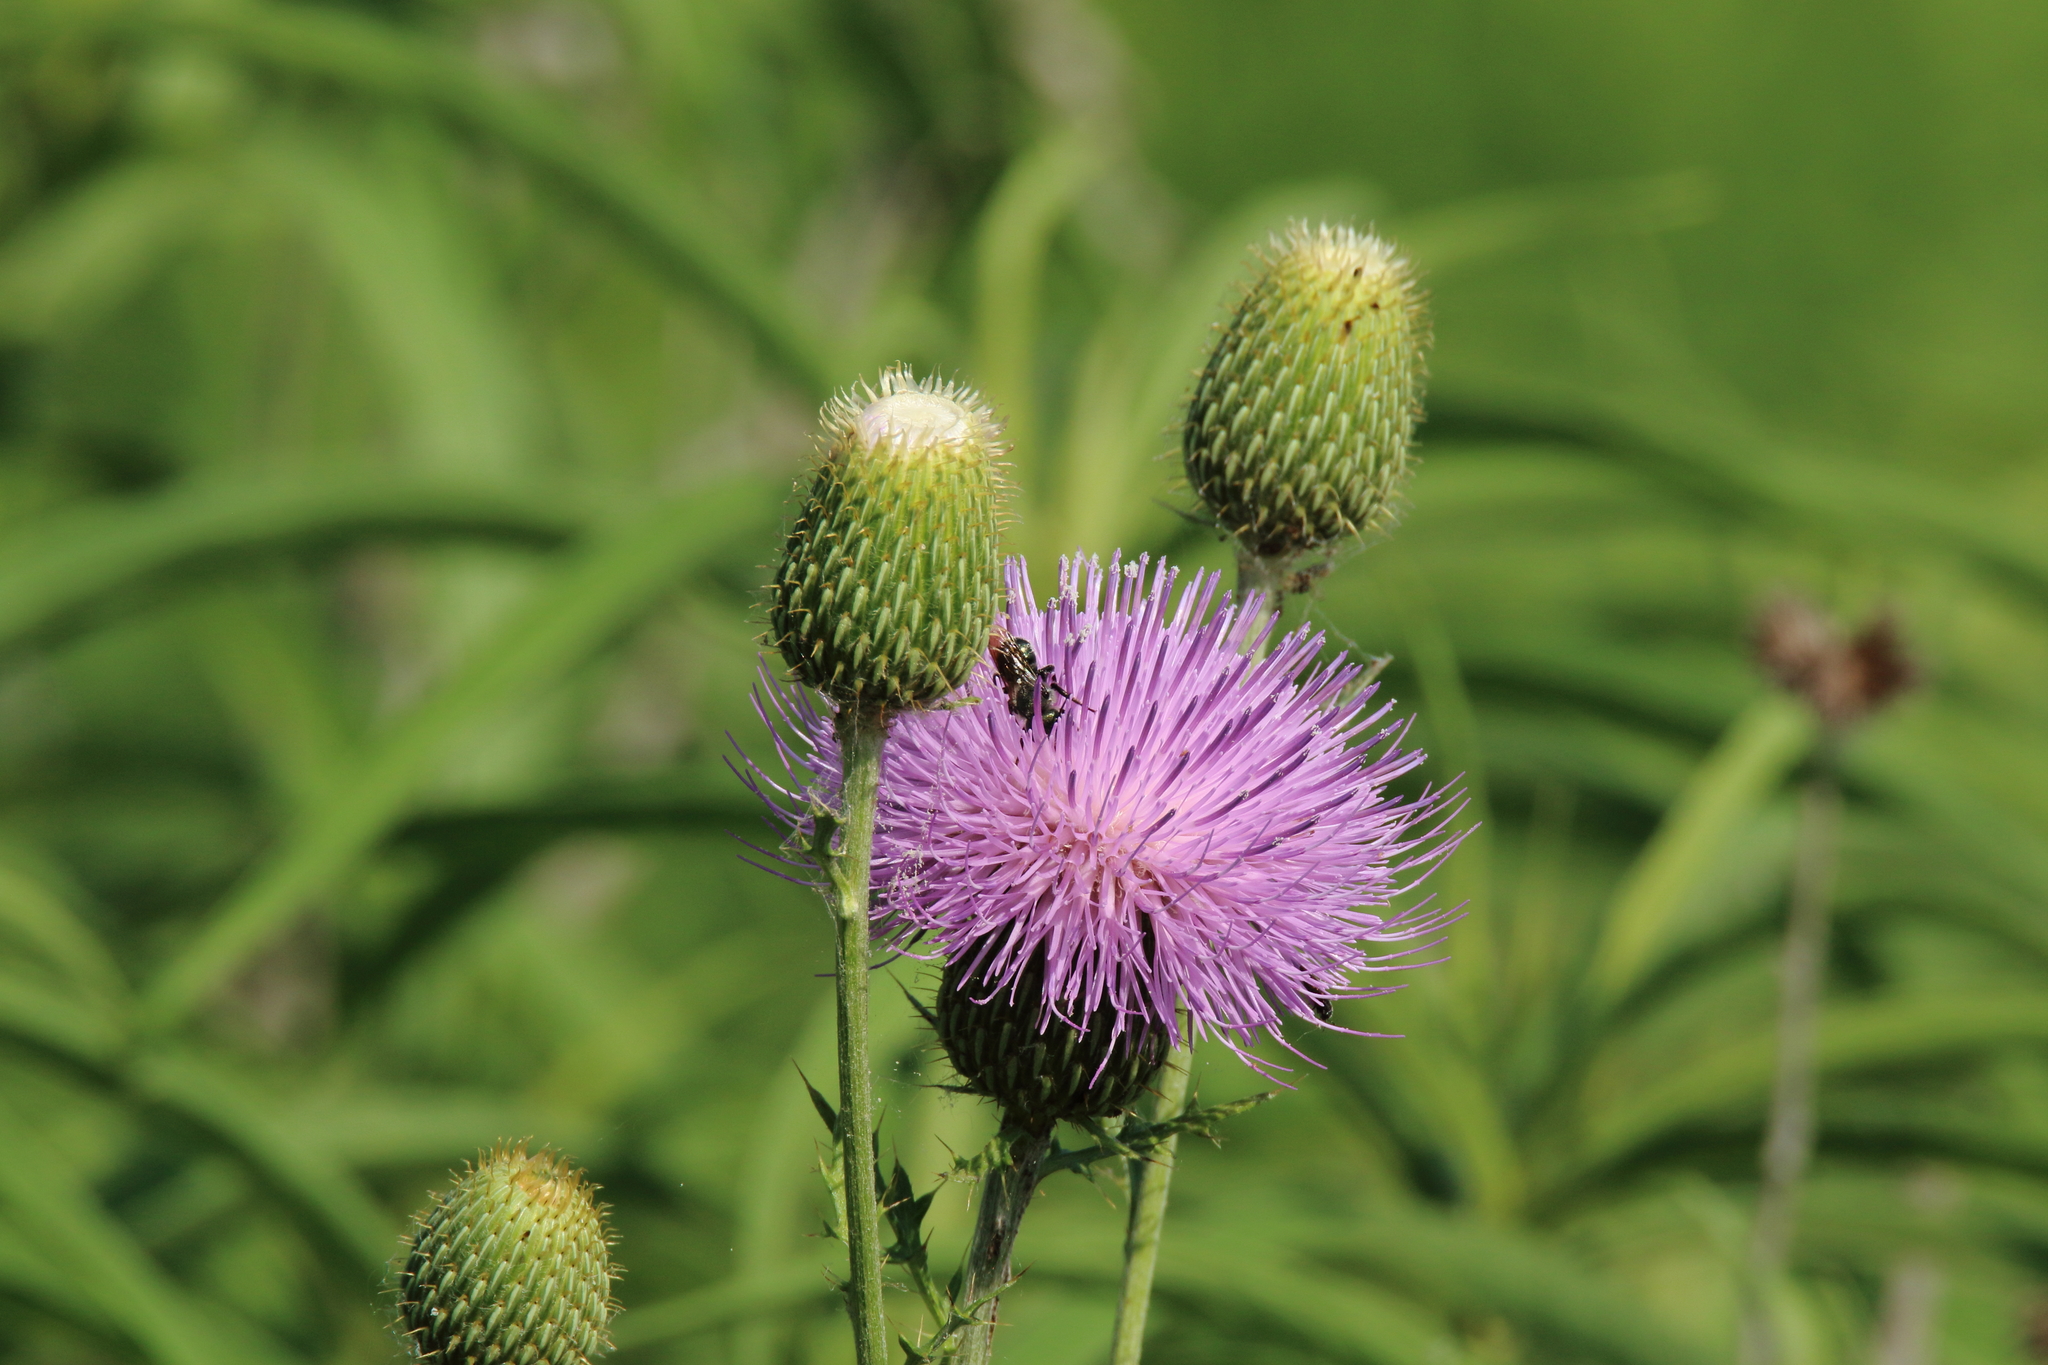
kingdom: Plantae
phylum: Tracheophyta
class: Magnoliopsida
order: Asterales
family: Asteraceae
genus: Cirsium
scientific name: Cirsium texanum
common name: Texas purple thistle
